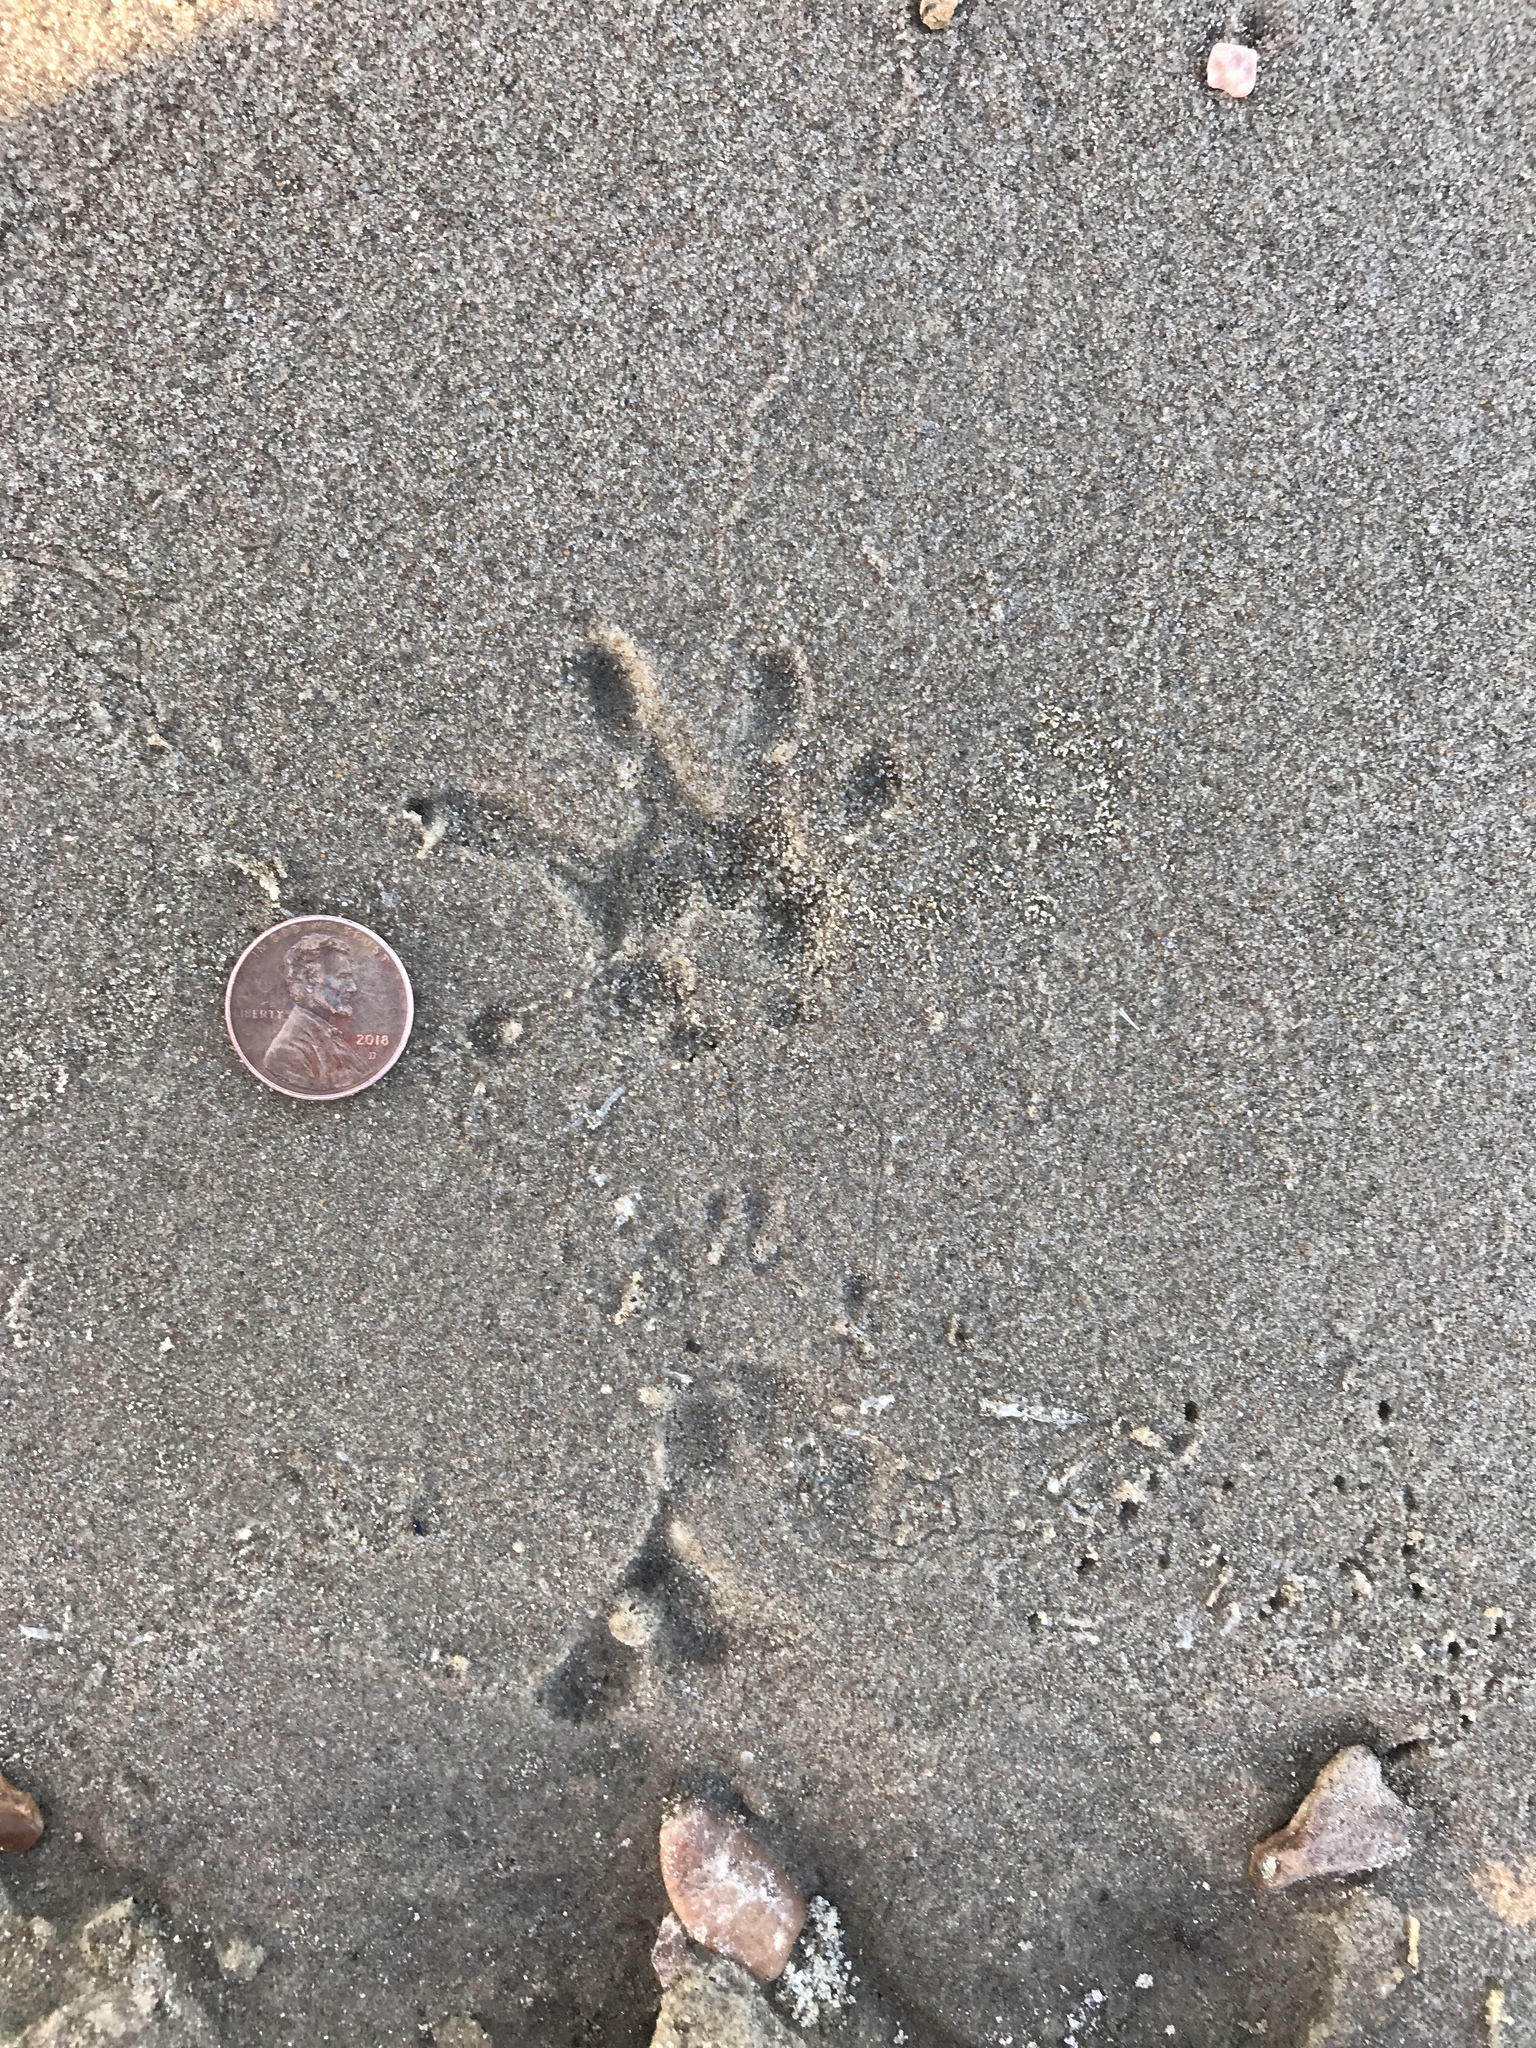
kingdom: Animalia
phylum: Chordata
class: Mammalia
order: Didelphimorphia
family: Didelphidae
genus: Didelphis
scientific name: Didelphis virginiana
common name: Virginia opossum
